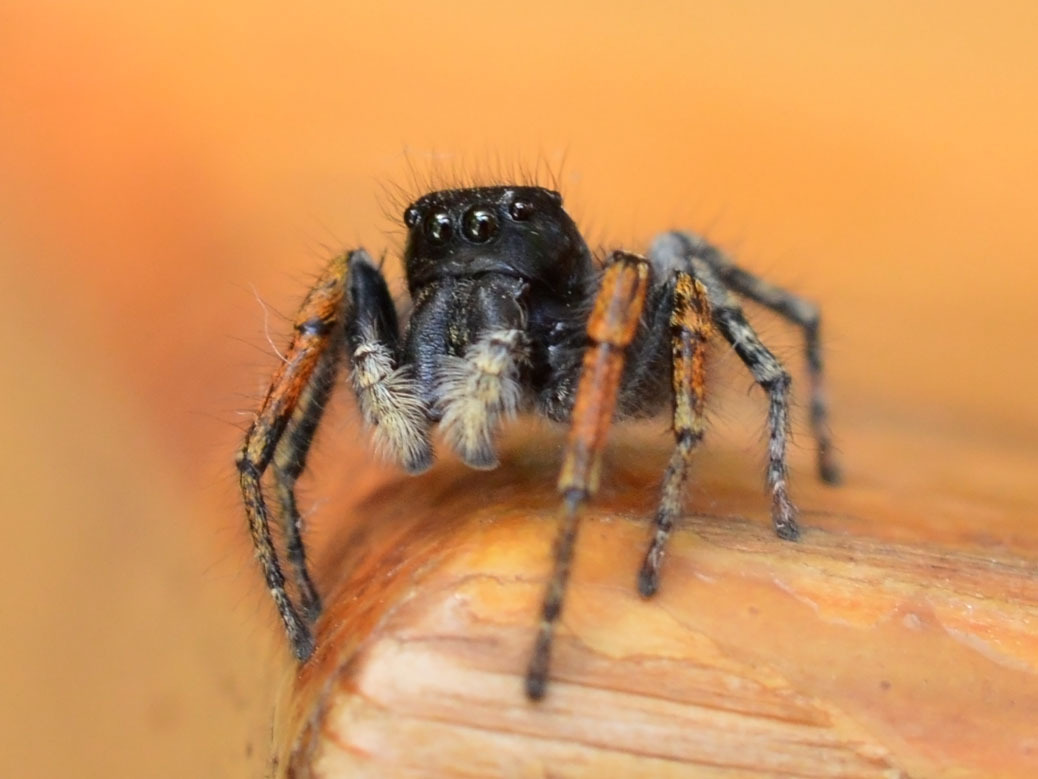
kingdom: Animalia
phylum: Arthropoda
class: Arachnida
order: Araneae
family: Salticidae
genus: Philaeus
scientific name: Philaeus chrysops
